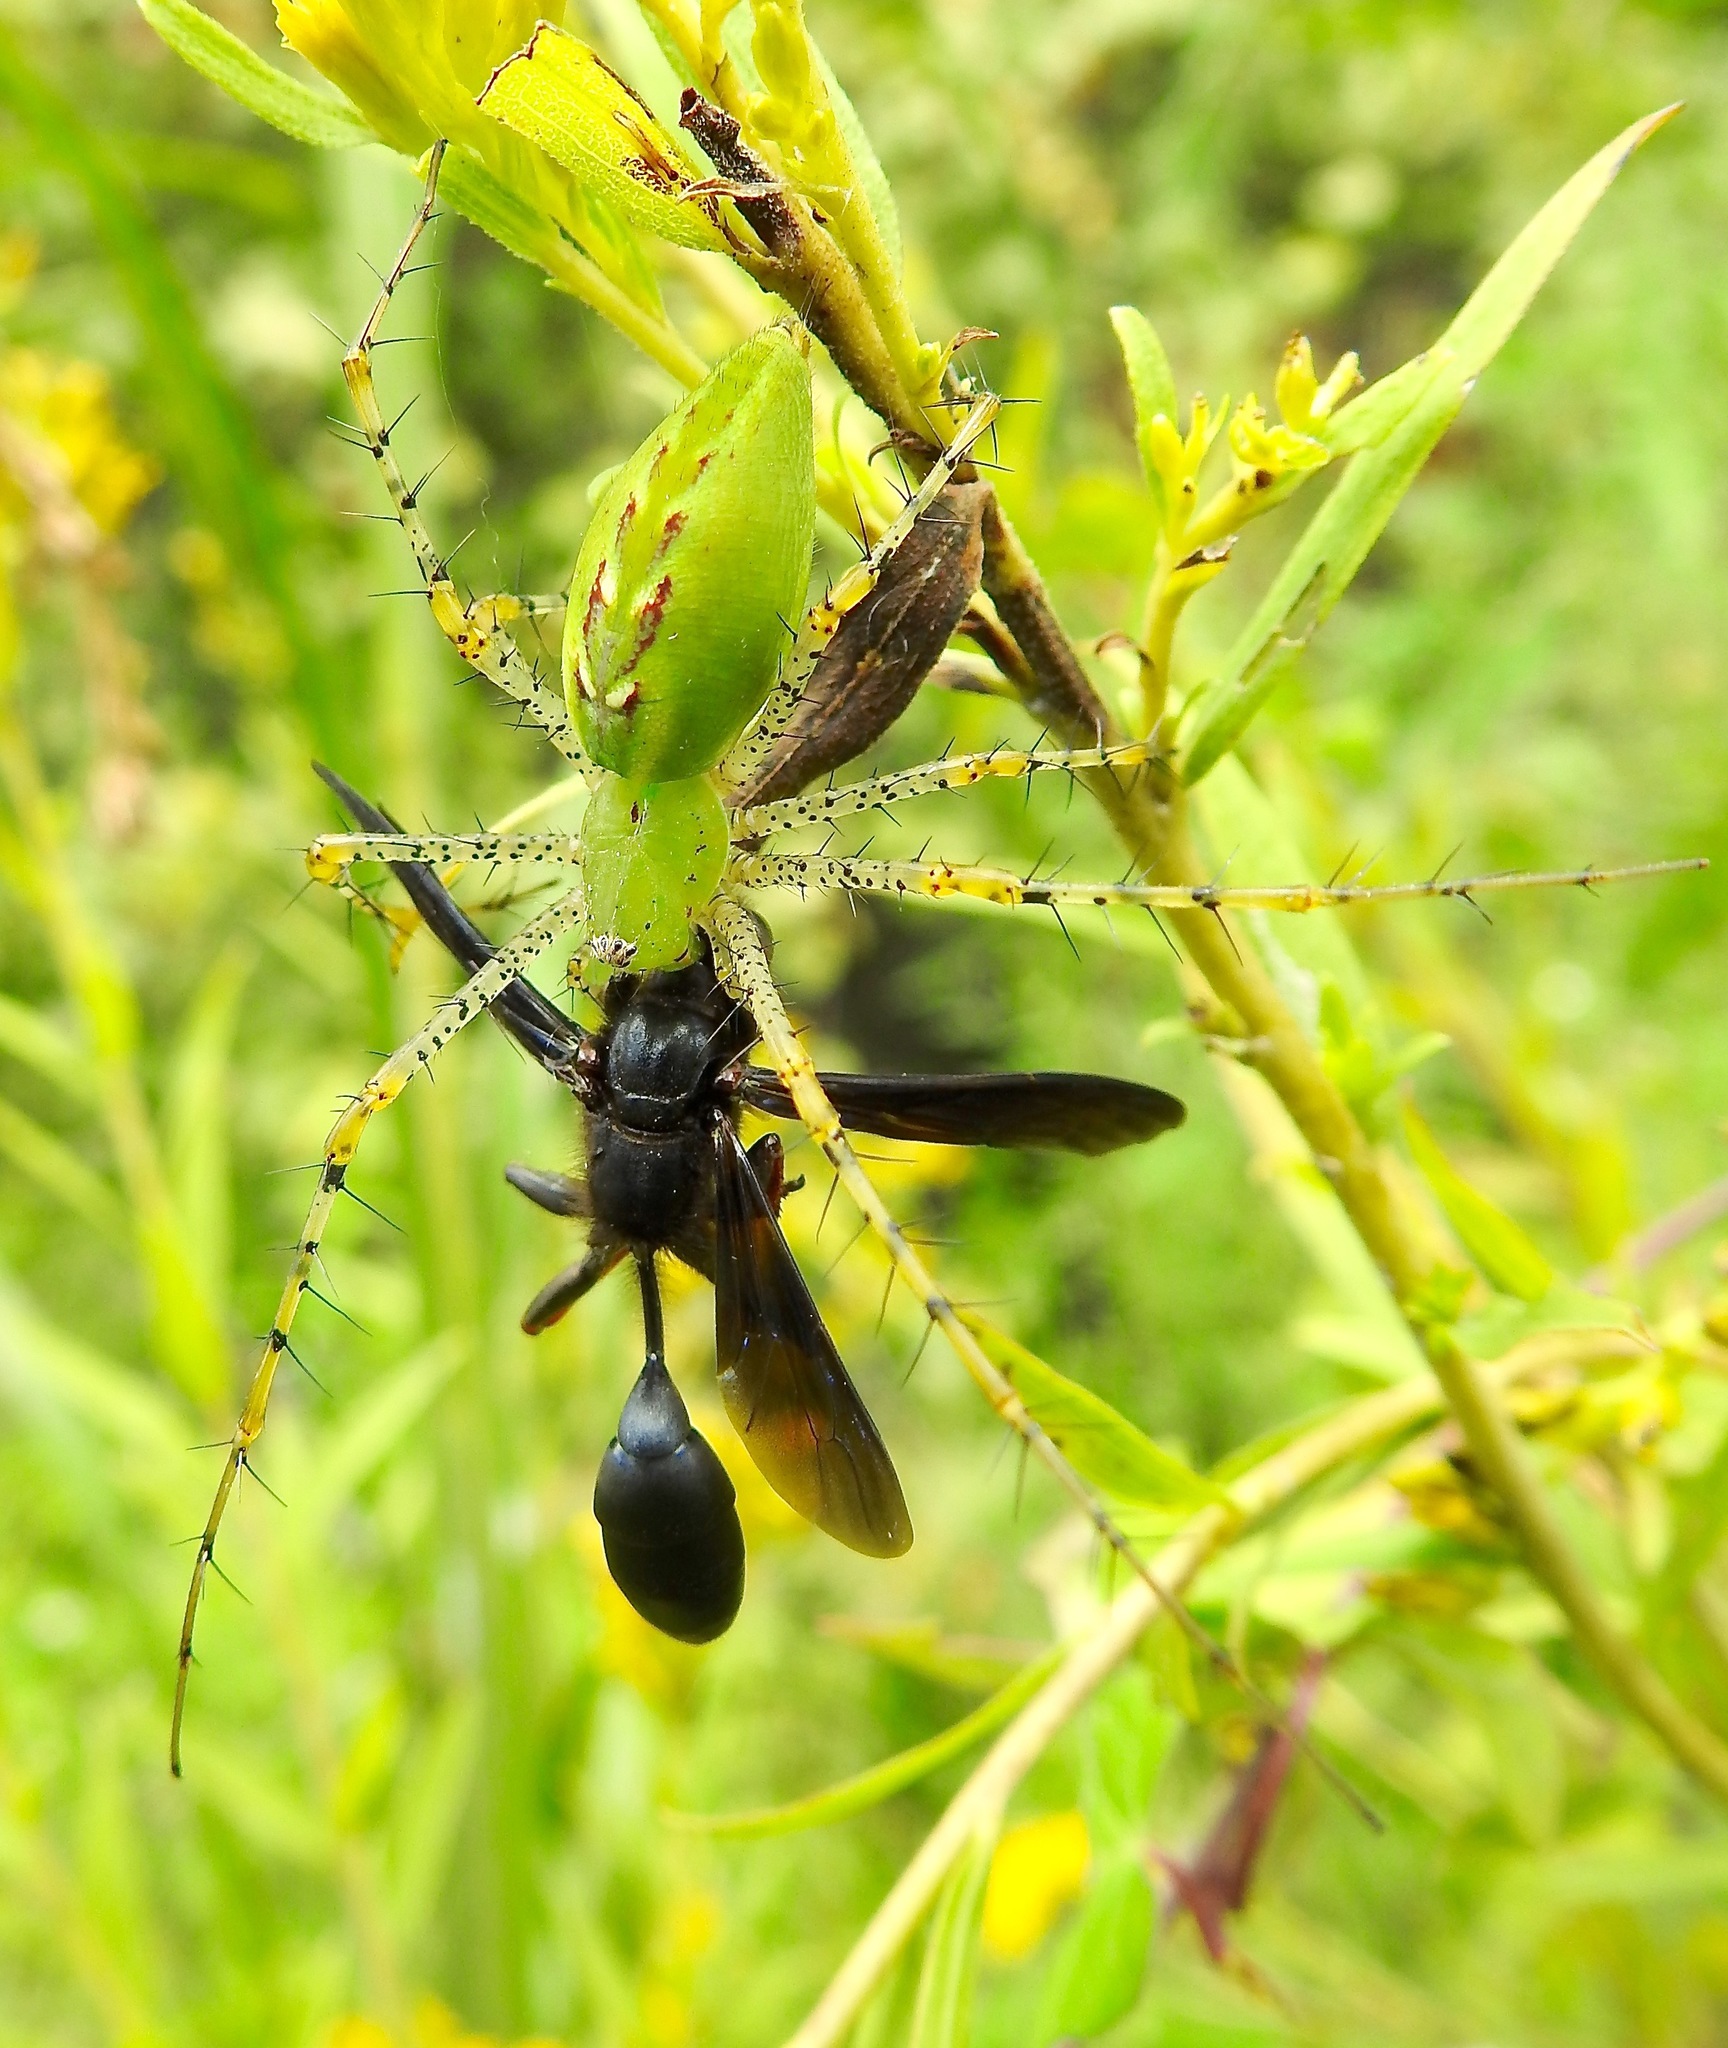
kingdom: Animalia
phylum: Arthropoda
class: Arachnida
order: Araneae
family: Oxyopidae
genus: Peucetia
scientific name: Peucetia viridans
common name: Lynx spiders
